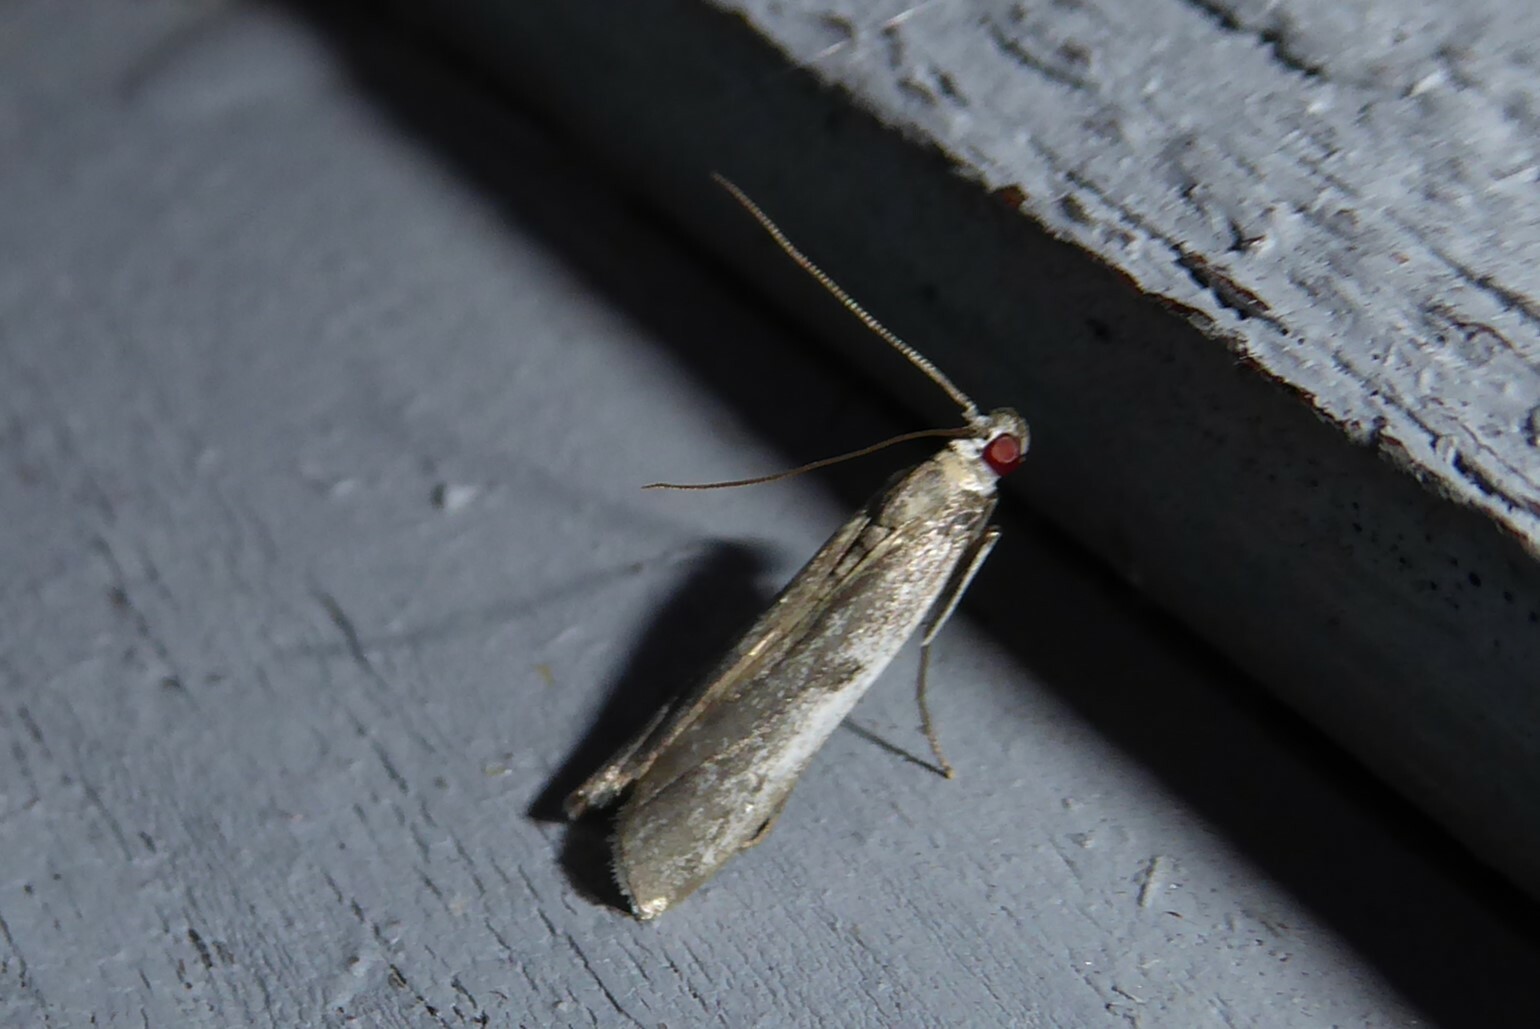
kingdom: Animalia
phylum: Arthropoda
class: Insecta
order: Lepidoptera
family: Pyralidae
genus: Patagoniodes
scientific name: Patagoniodes farinaria
